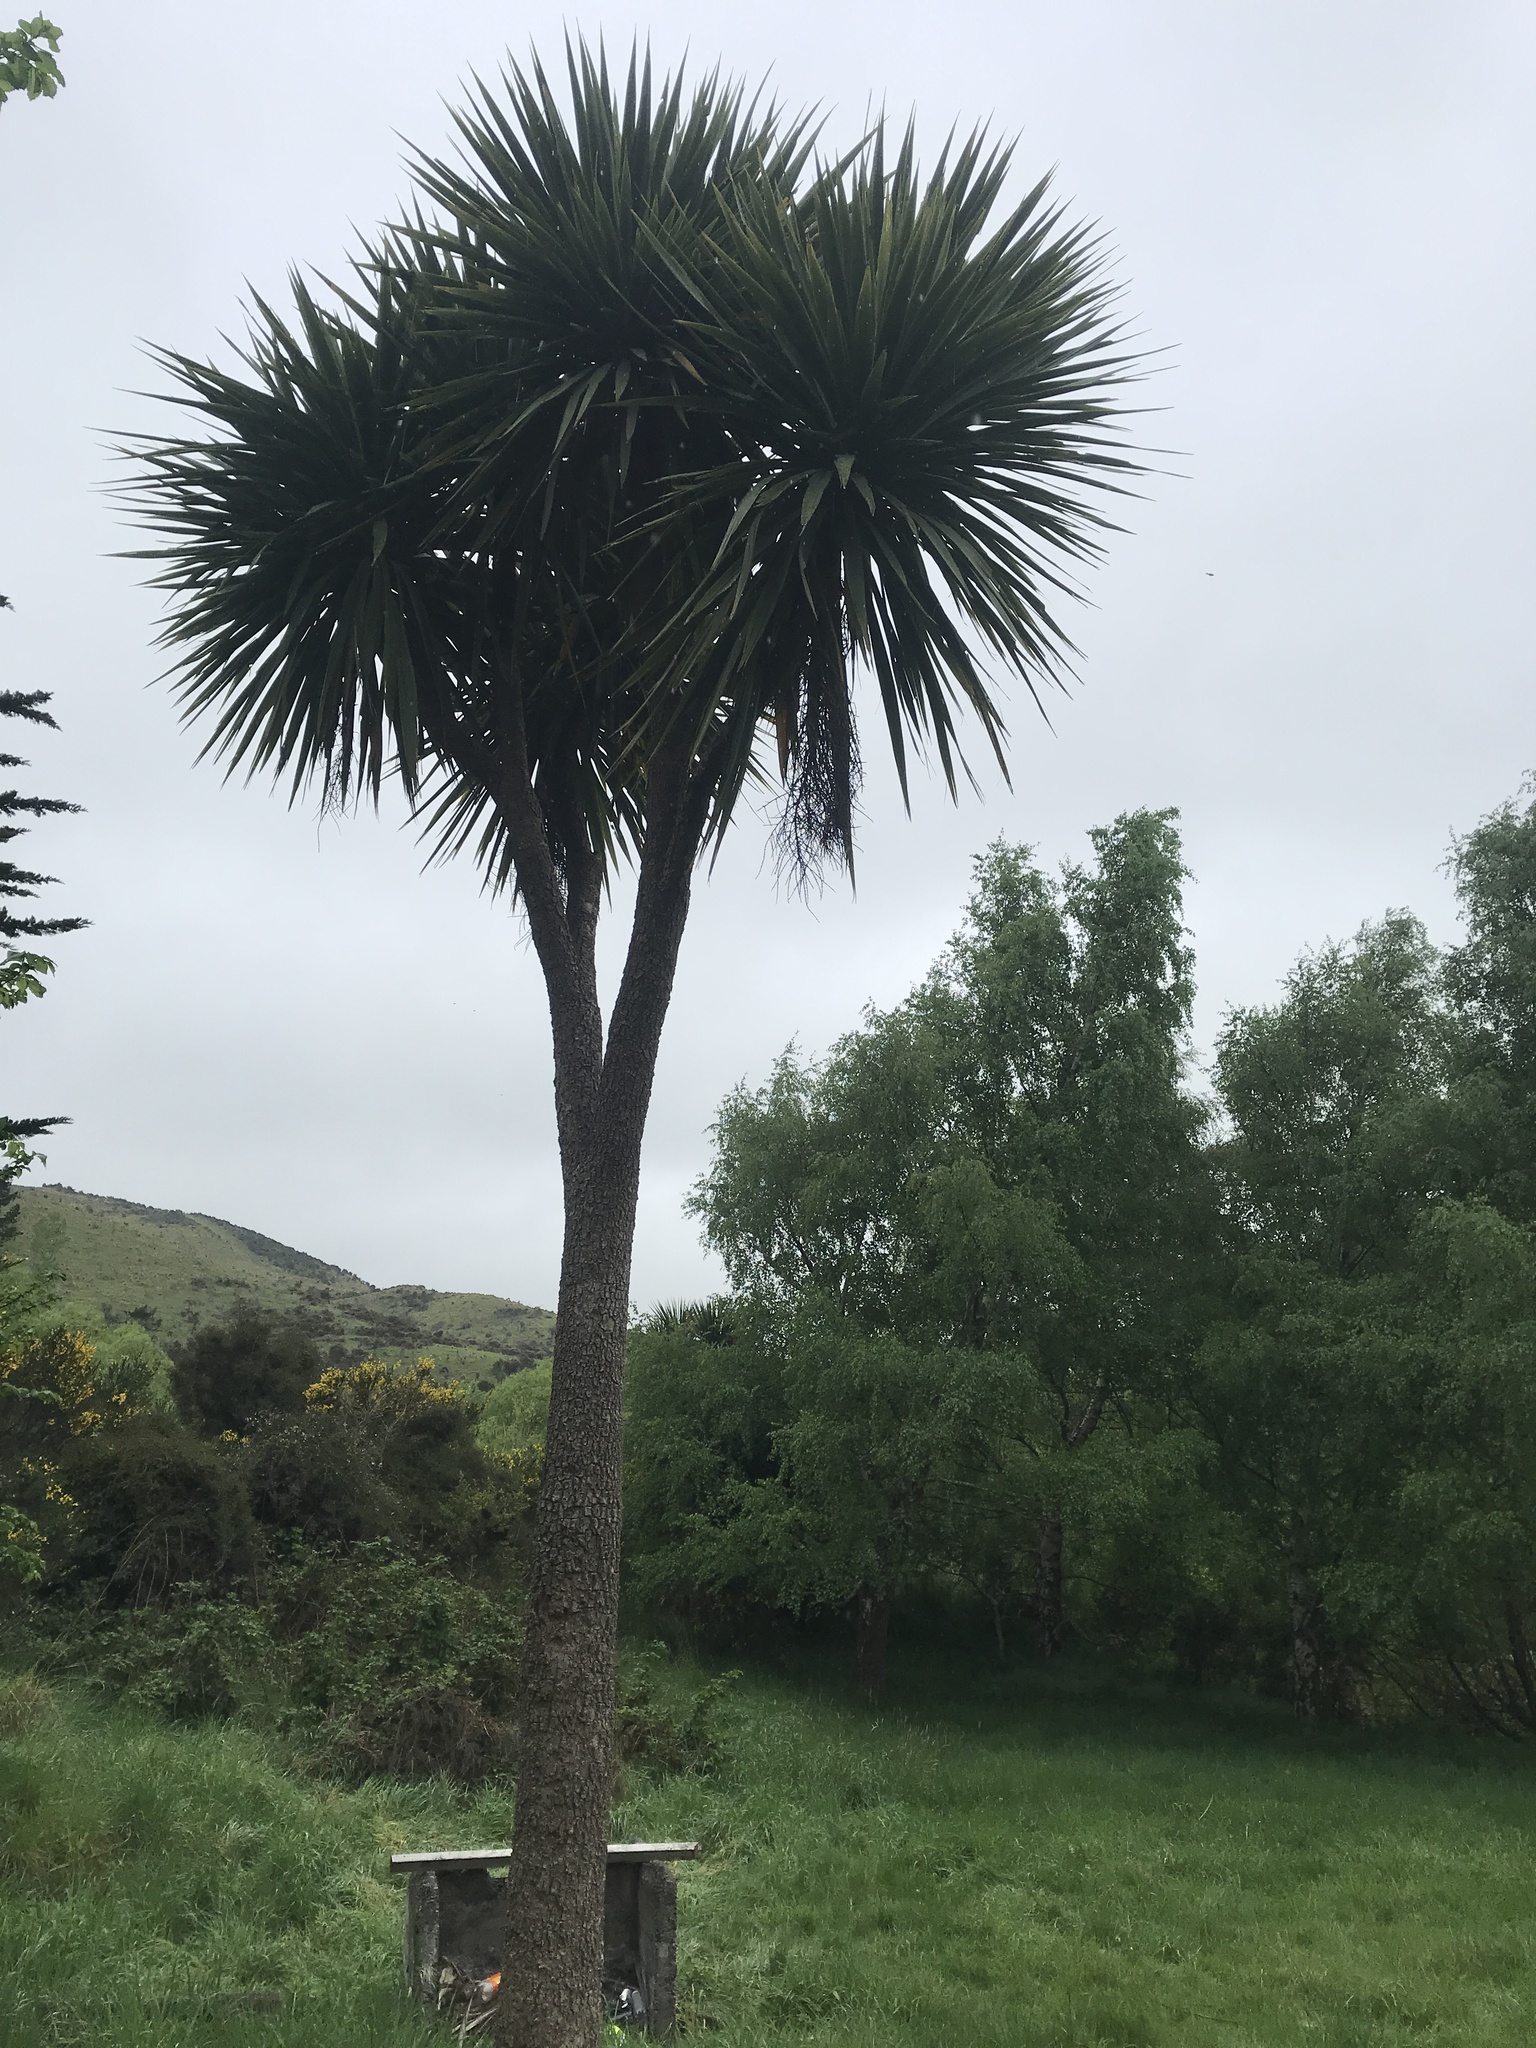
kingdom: Plantae
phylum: Tracheophyta
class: Liliopsida
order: Asparagales
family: Asparagaceae
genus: Cordyline
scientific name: Cordyline australis
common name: Cabbage-palm
